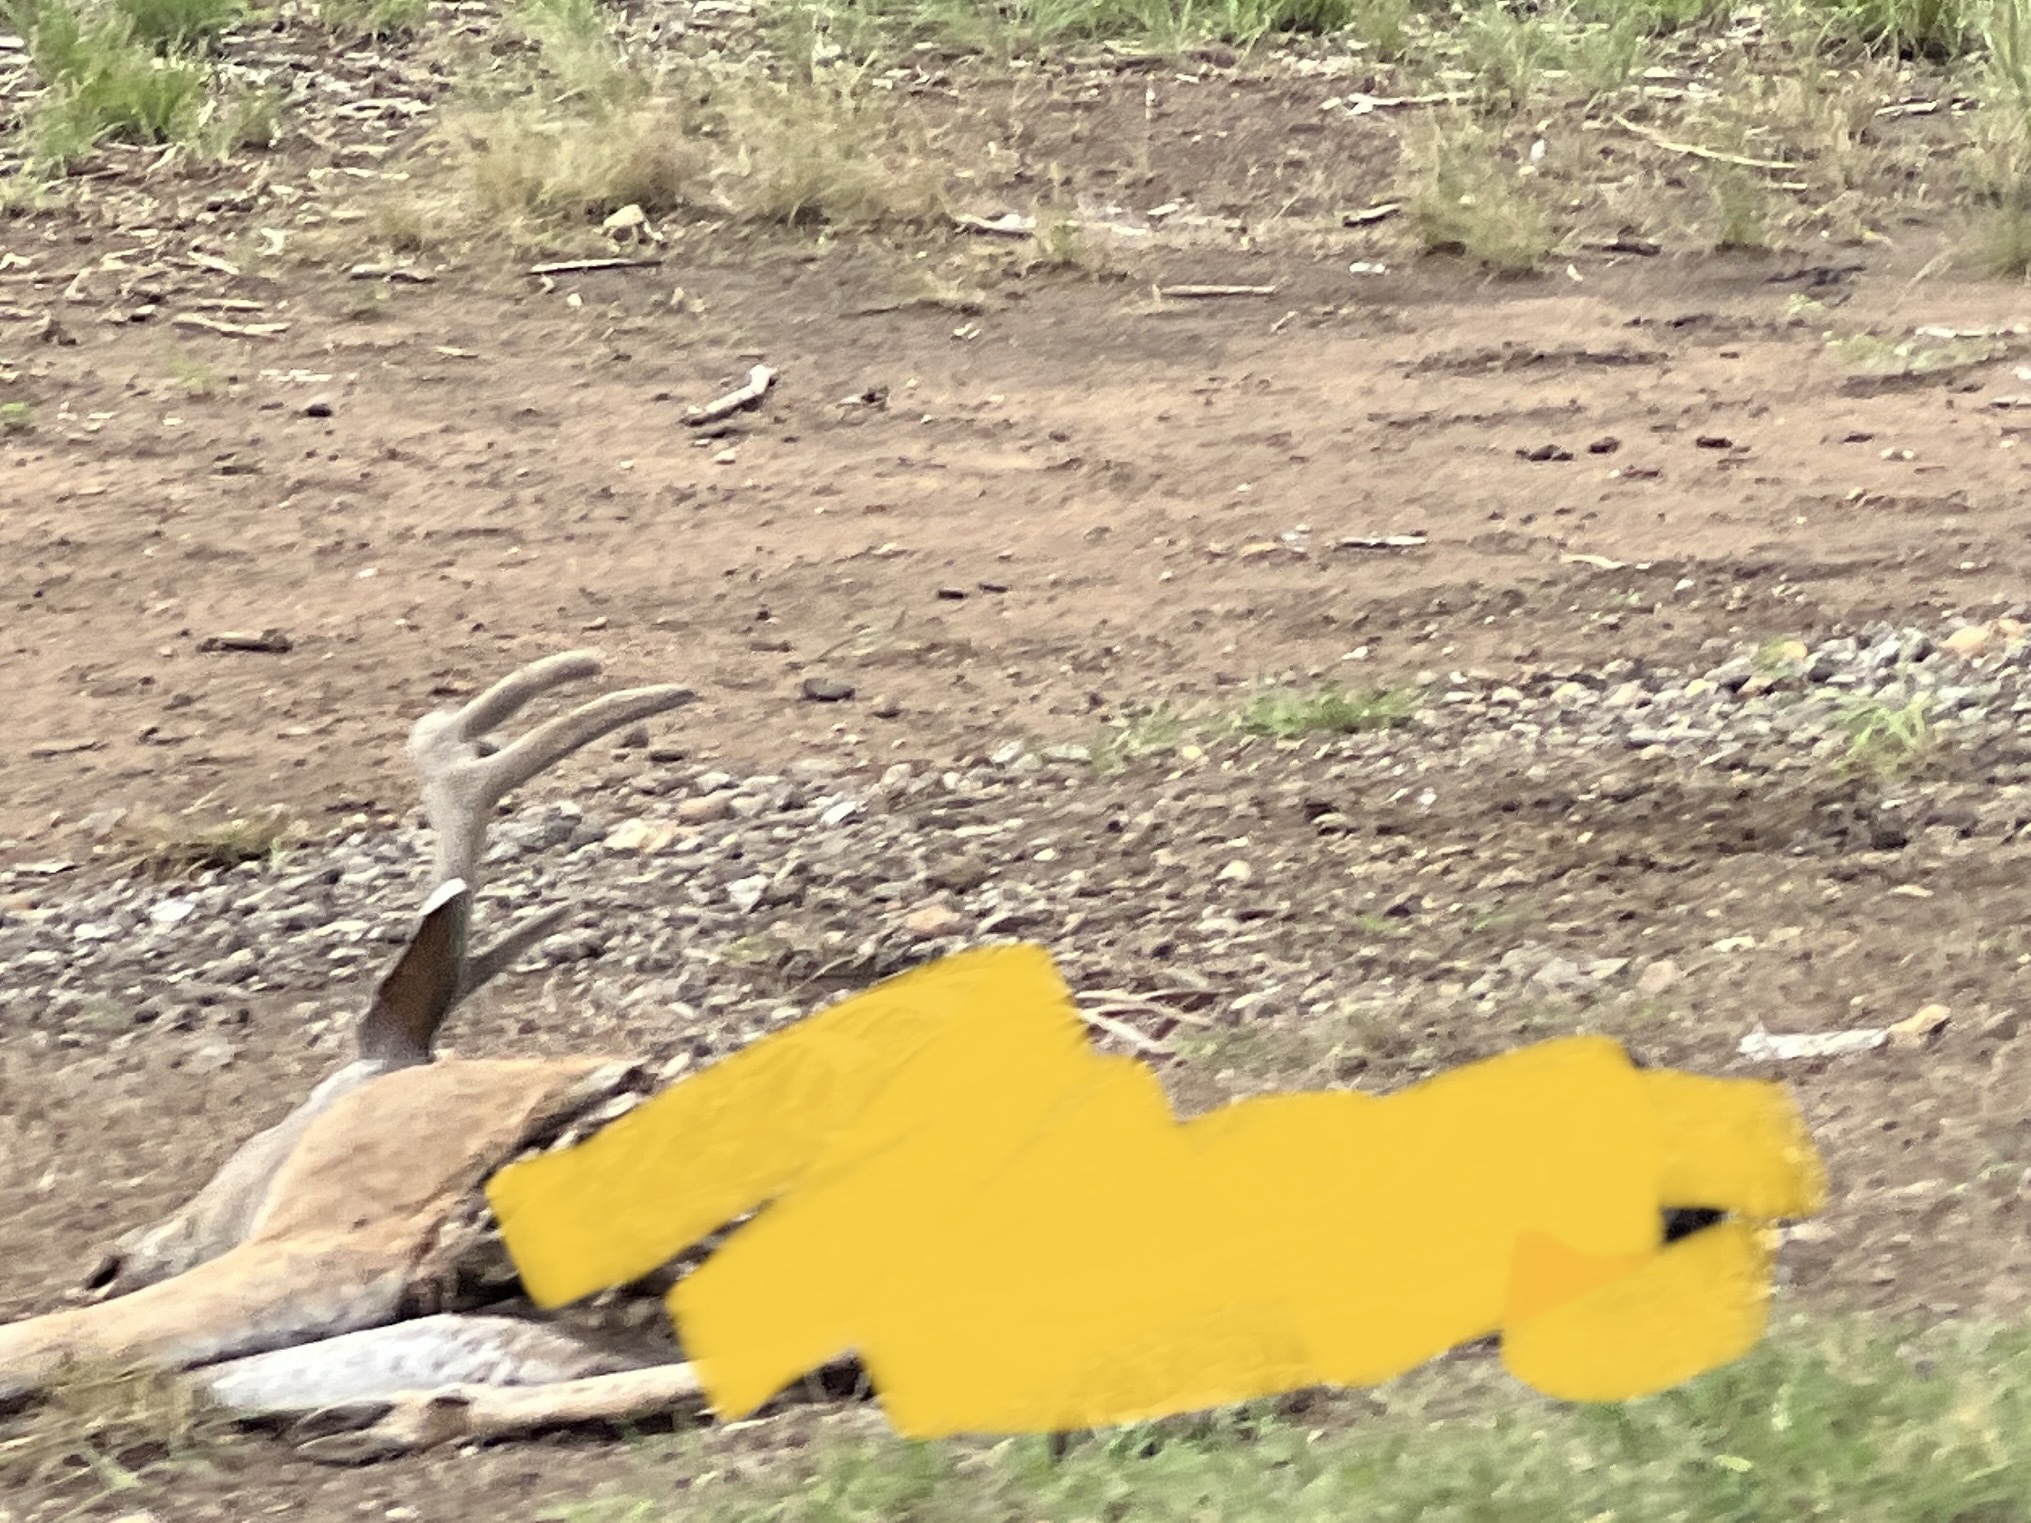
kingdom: Animalia
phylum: Chordata
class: Mammalia
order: Artiodactyla
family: Cervidae
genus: Odocoileus
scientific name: Odocoileus virginianus
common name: White-tailed deer
